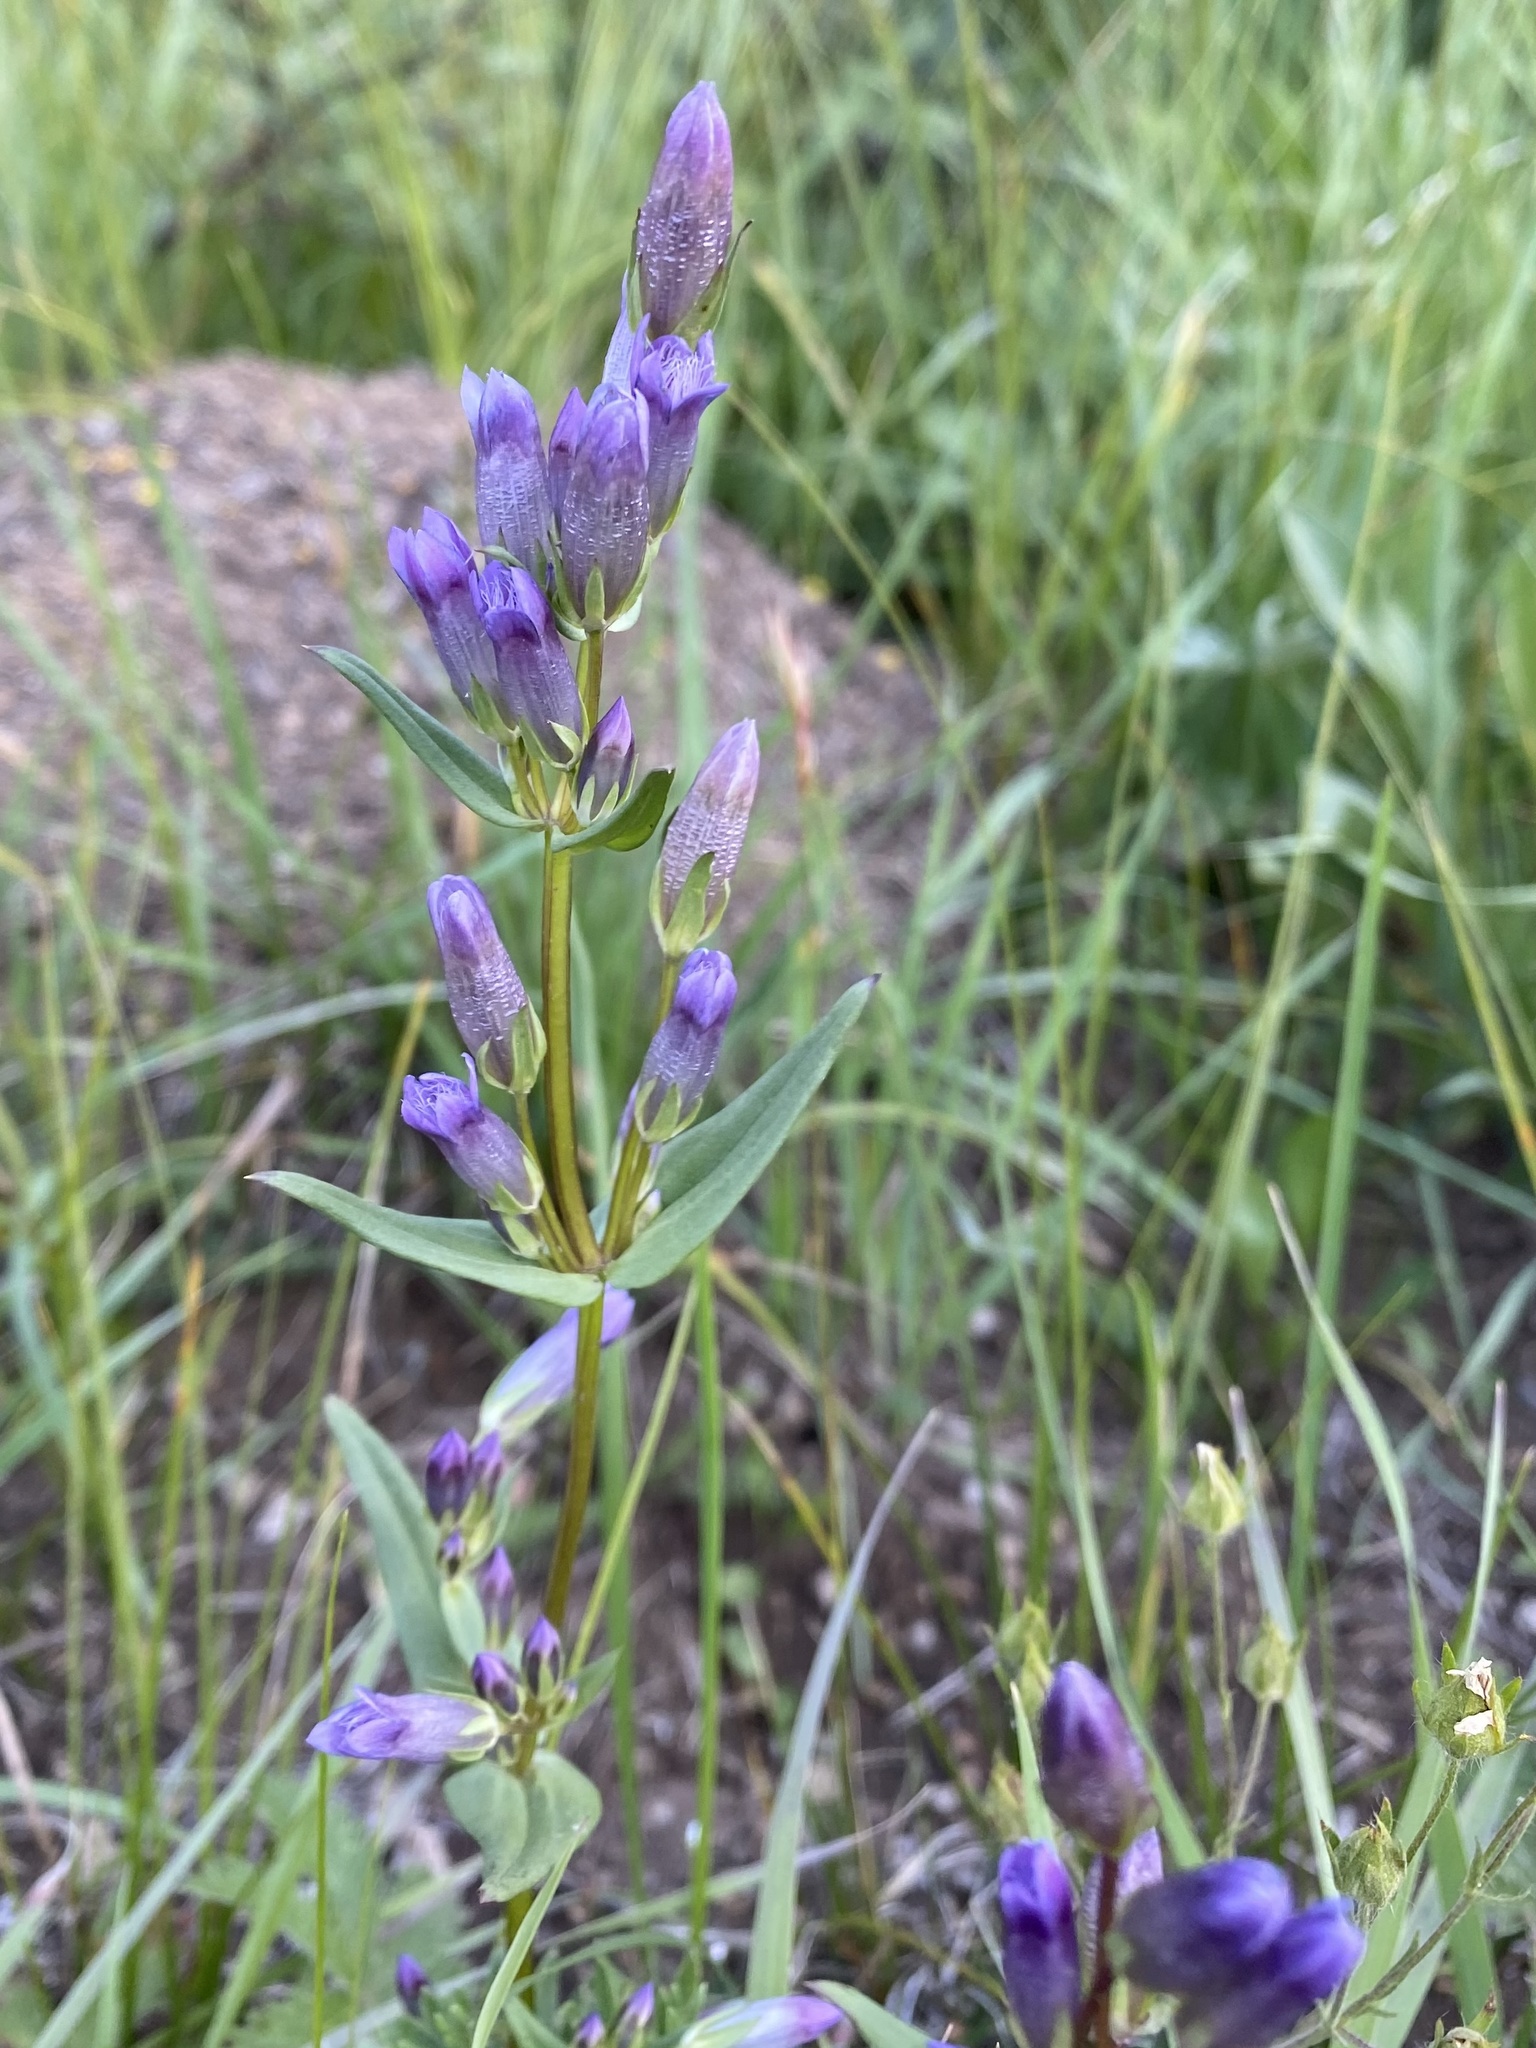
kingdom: Plantae
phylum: Tracheophyta
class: Magnoliopsida
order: Gentianales
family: Gentianaceae
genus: Gentianella
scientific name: Gentianella amarella
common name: Autumn gentian
